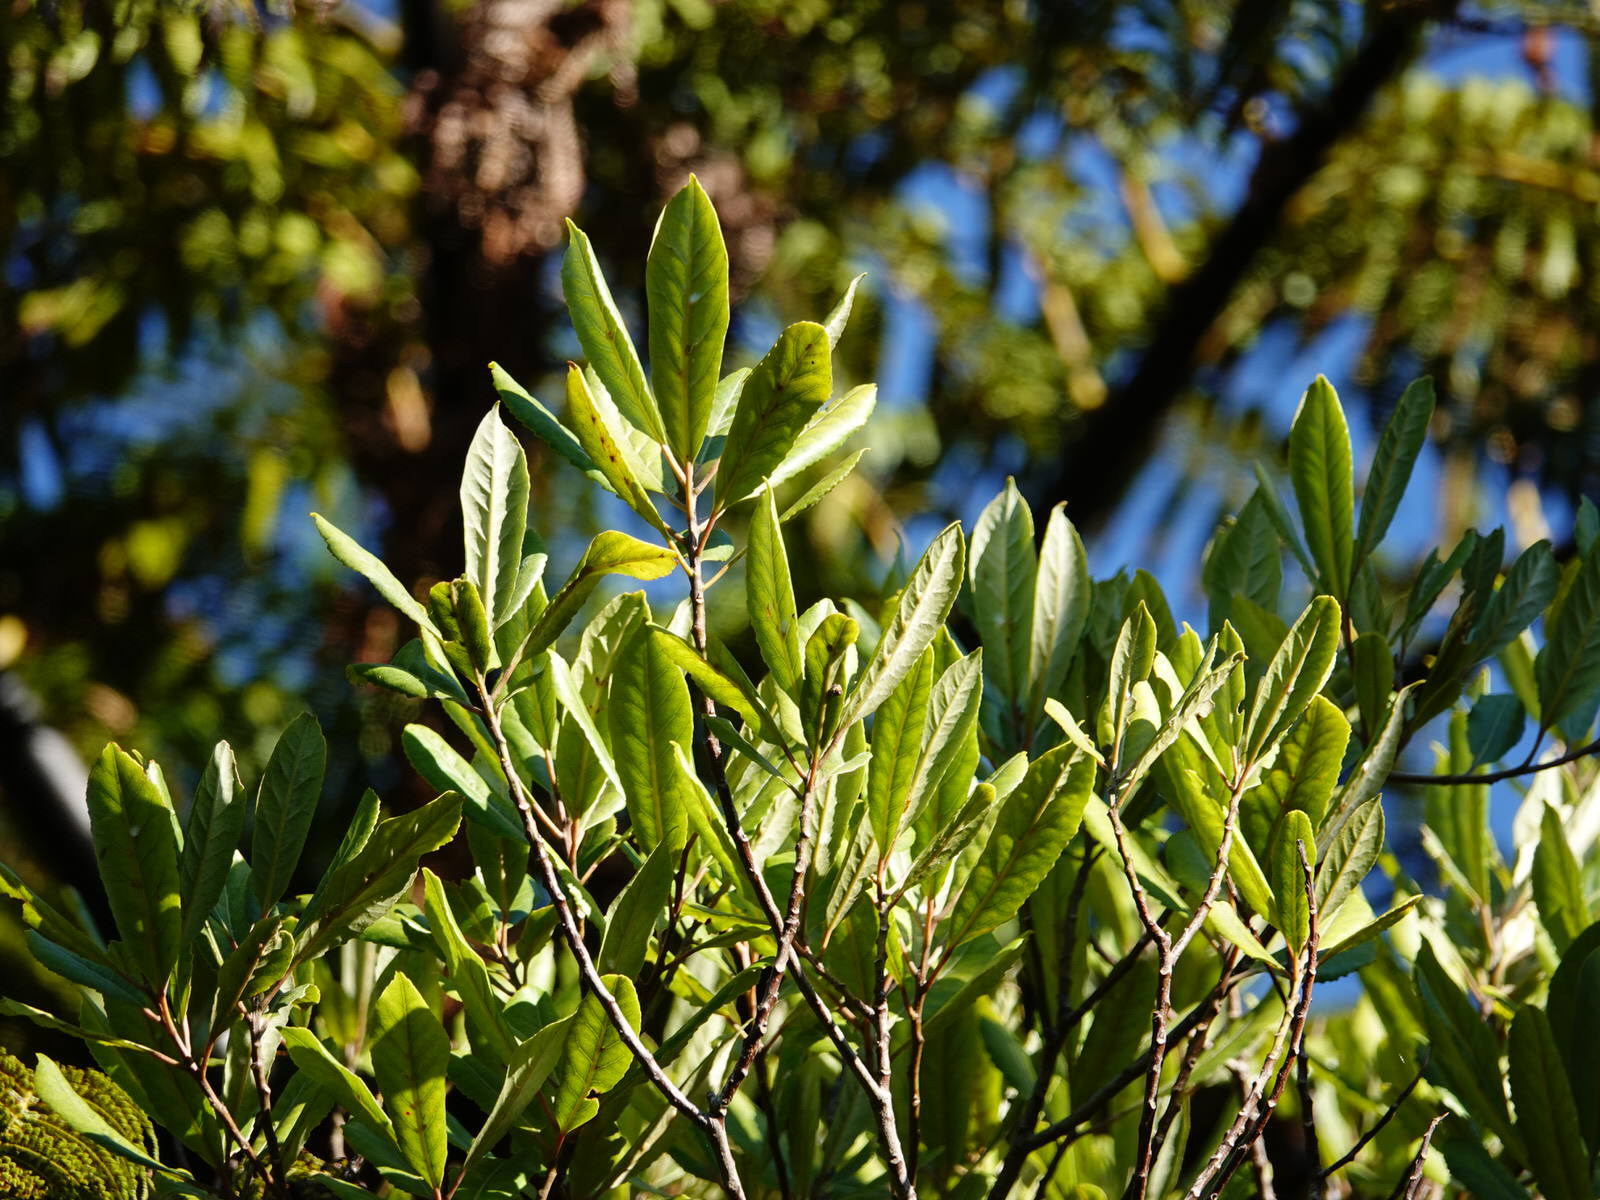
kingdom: Plantae
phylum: Tracheophyta
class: Magnoliopsida
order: Oxalidales
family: Elaeocarpaceae
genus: Elaeocarpus
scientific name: Elaeocarpus dentatus
